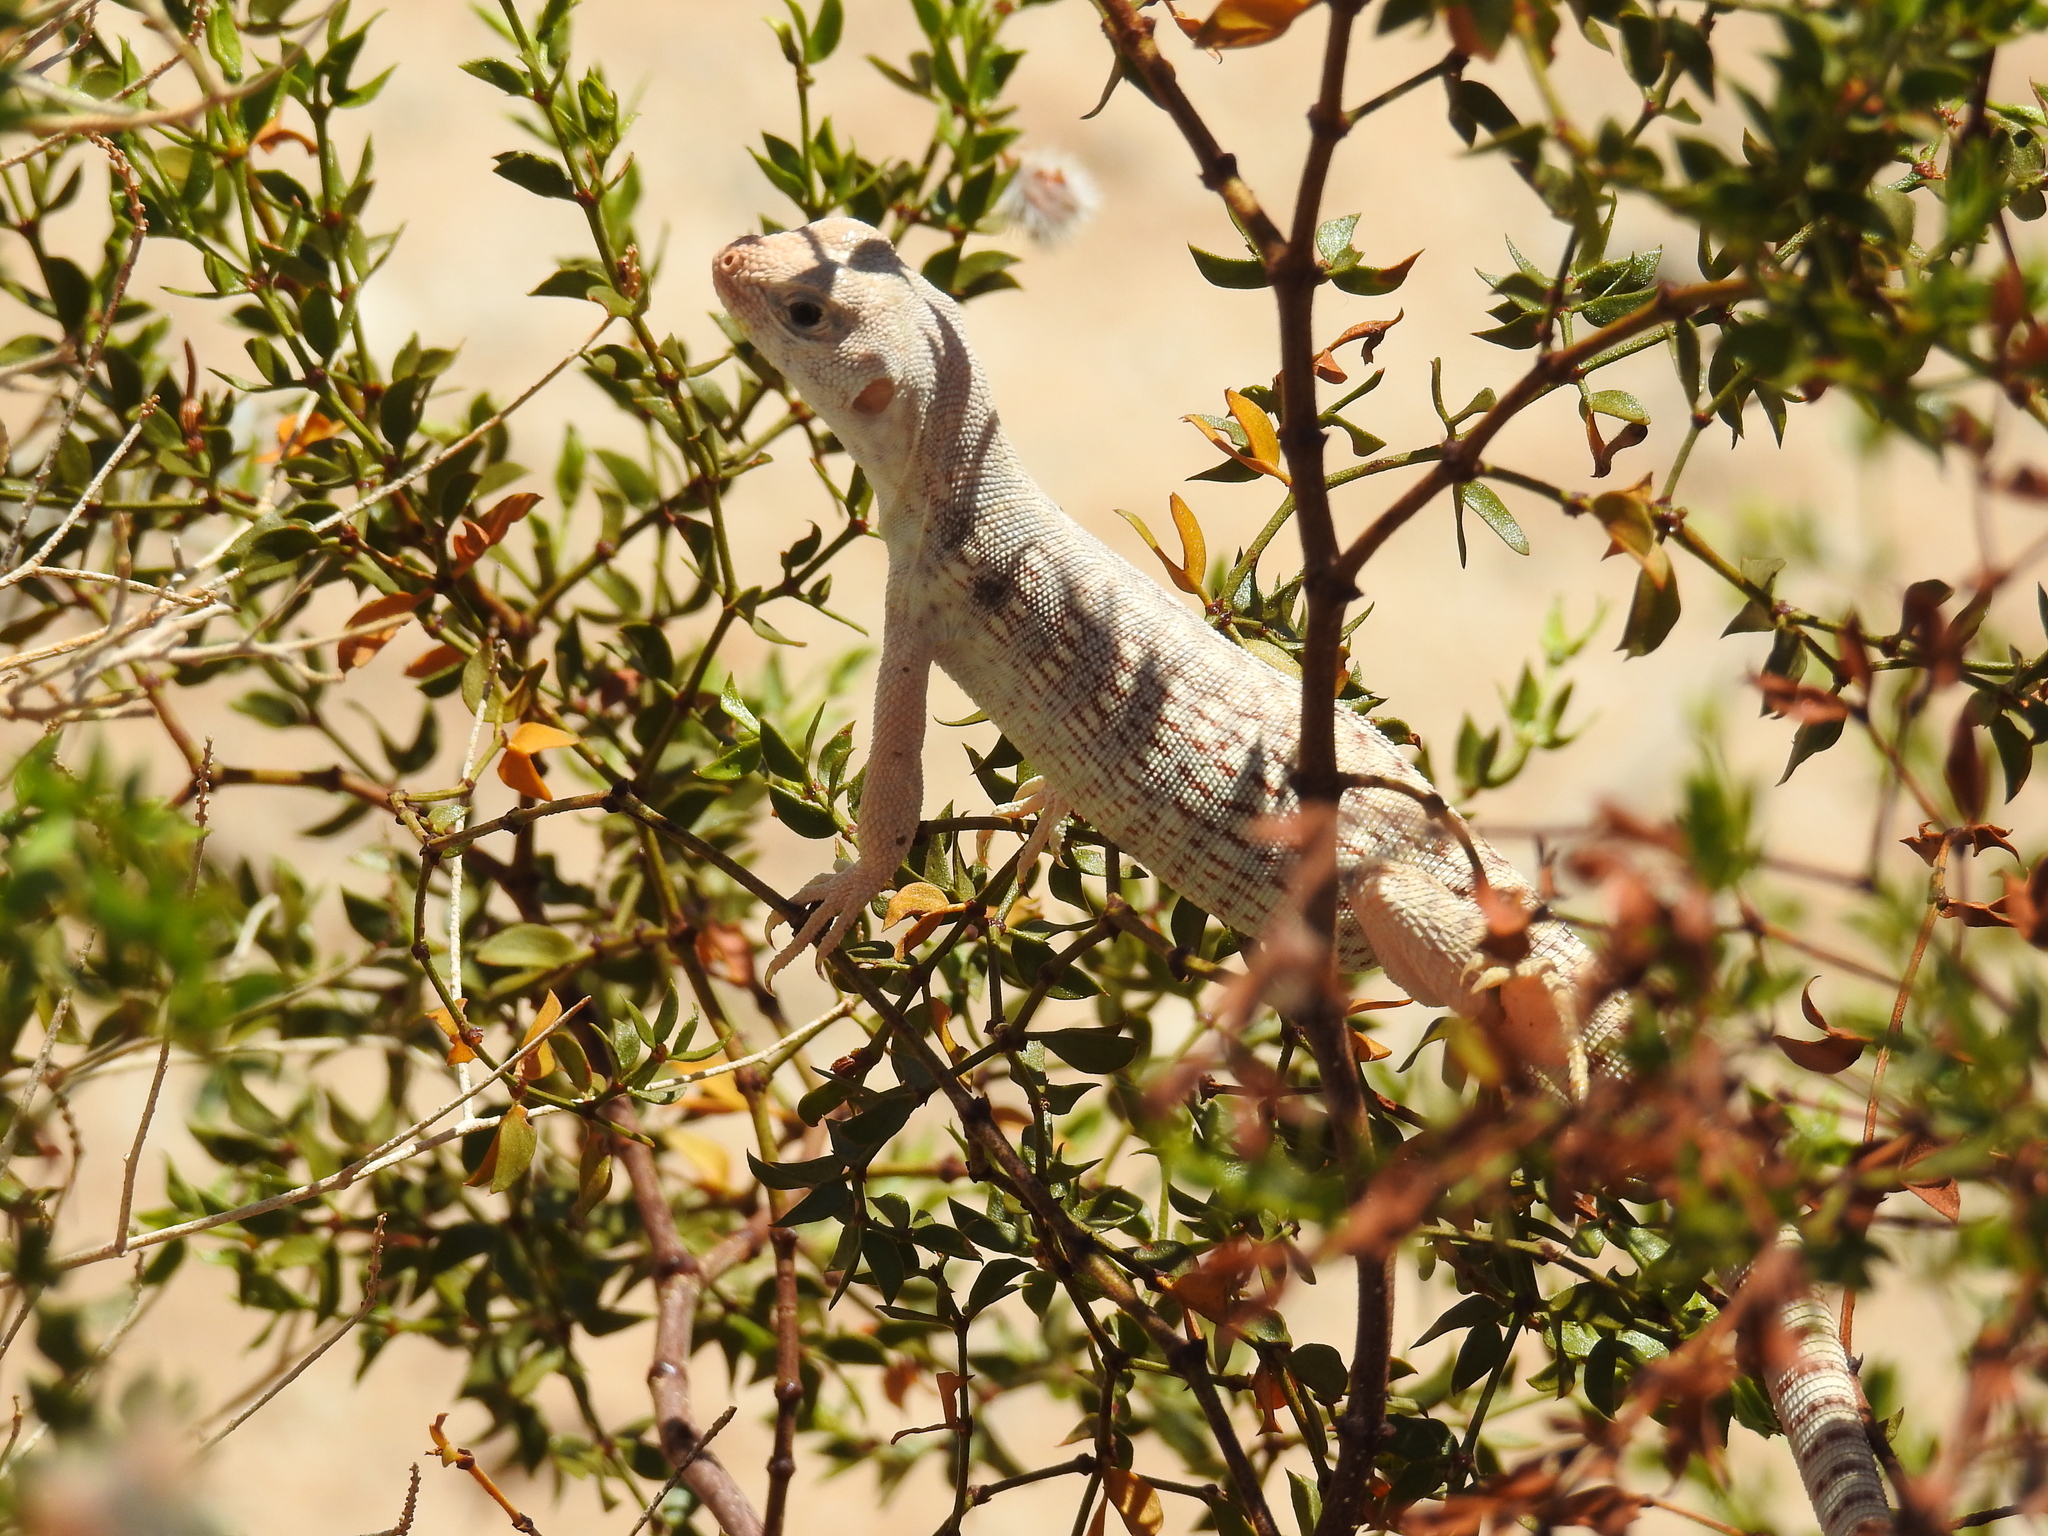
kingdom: Animalia
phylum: Chordata
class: Squamata
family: Iguanidae
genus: Dipsosaurus
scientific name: Dipsosaurus dorsalis
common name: Desert iguana
